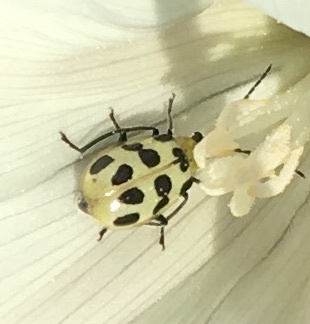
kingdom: Animalia
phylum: Arthropoda
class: Insecta
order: Coleoptera
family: Chrysomelidae
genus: Diabrotica
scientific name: Diabrotica undecimpunctata
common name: Spotted cucumber beetle
